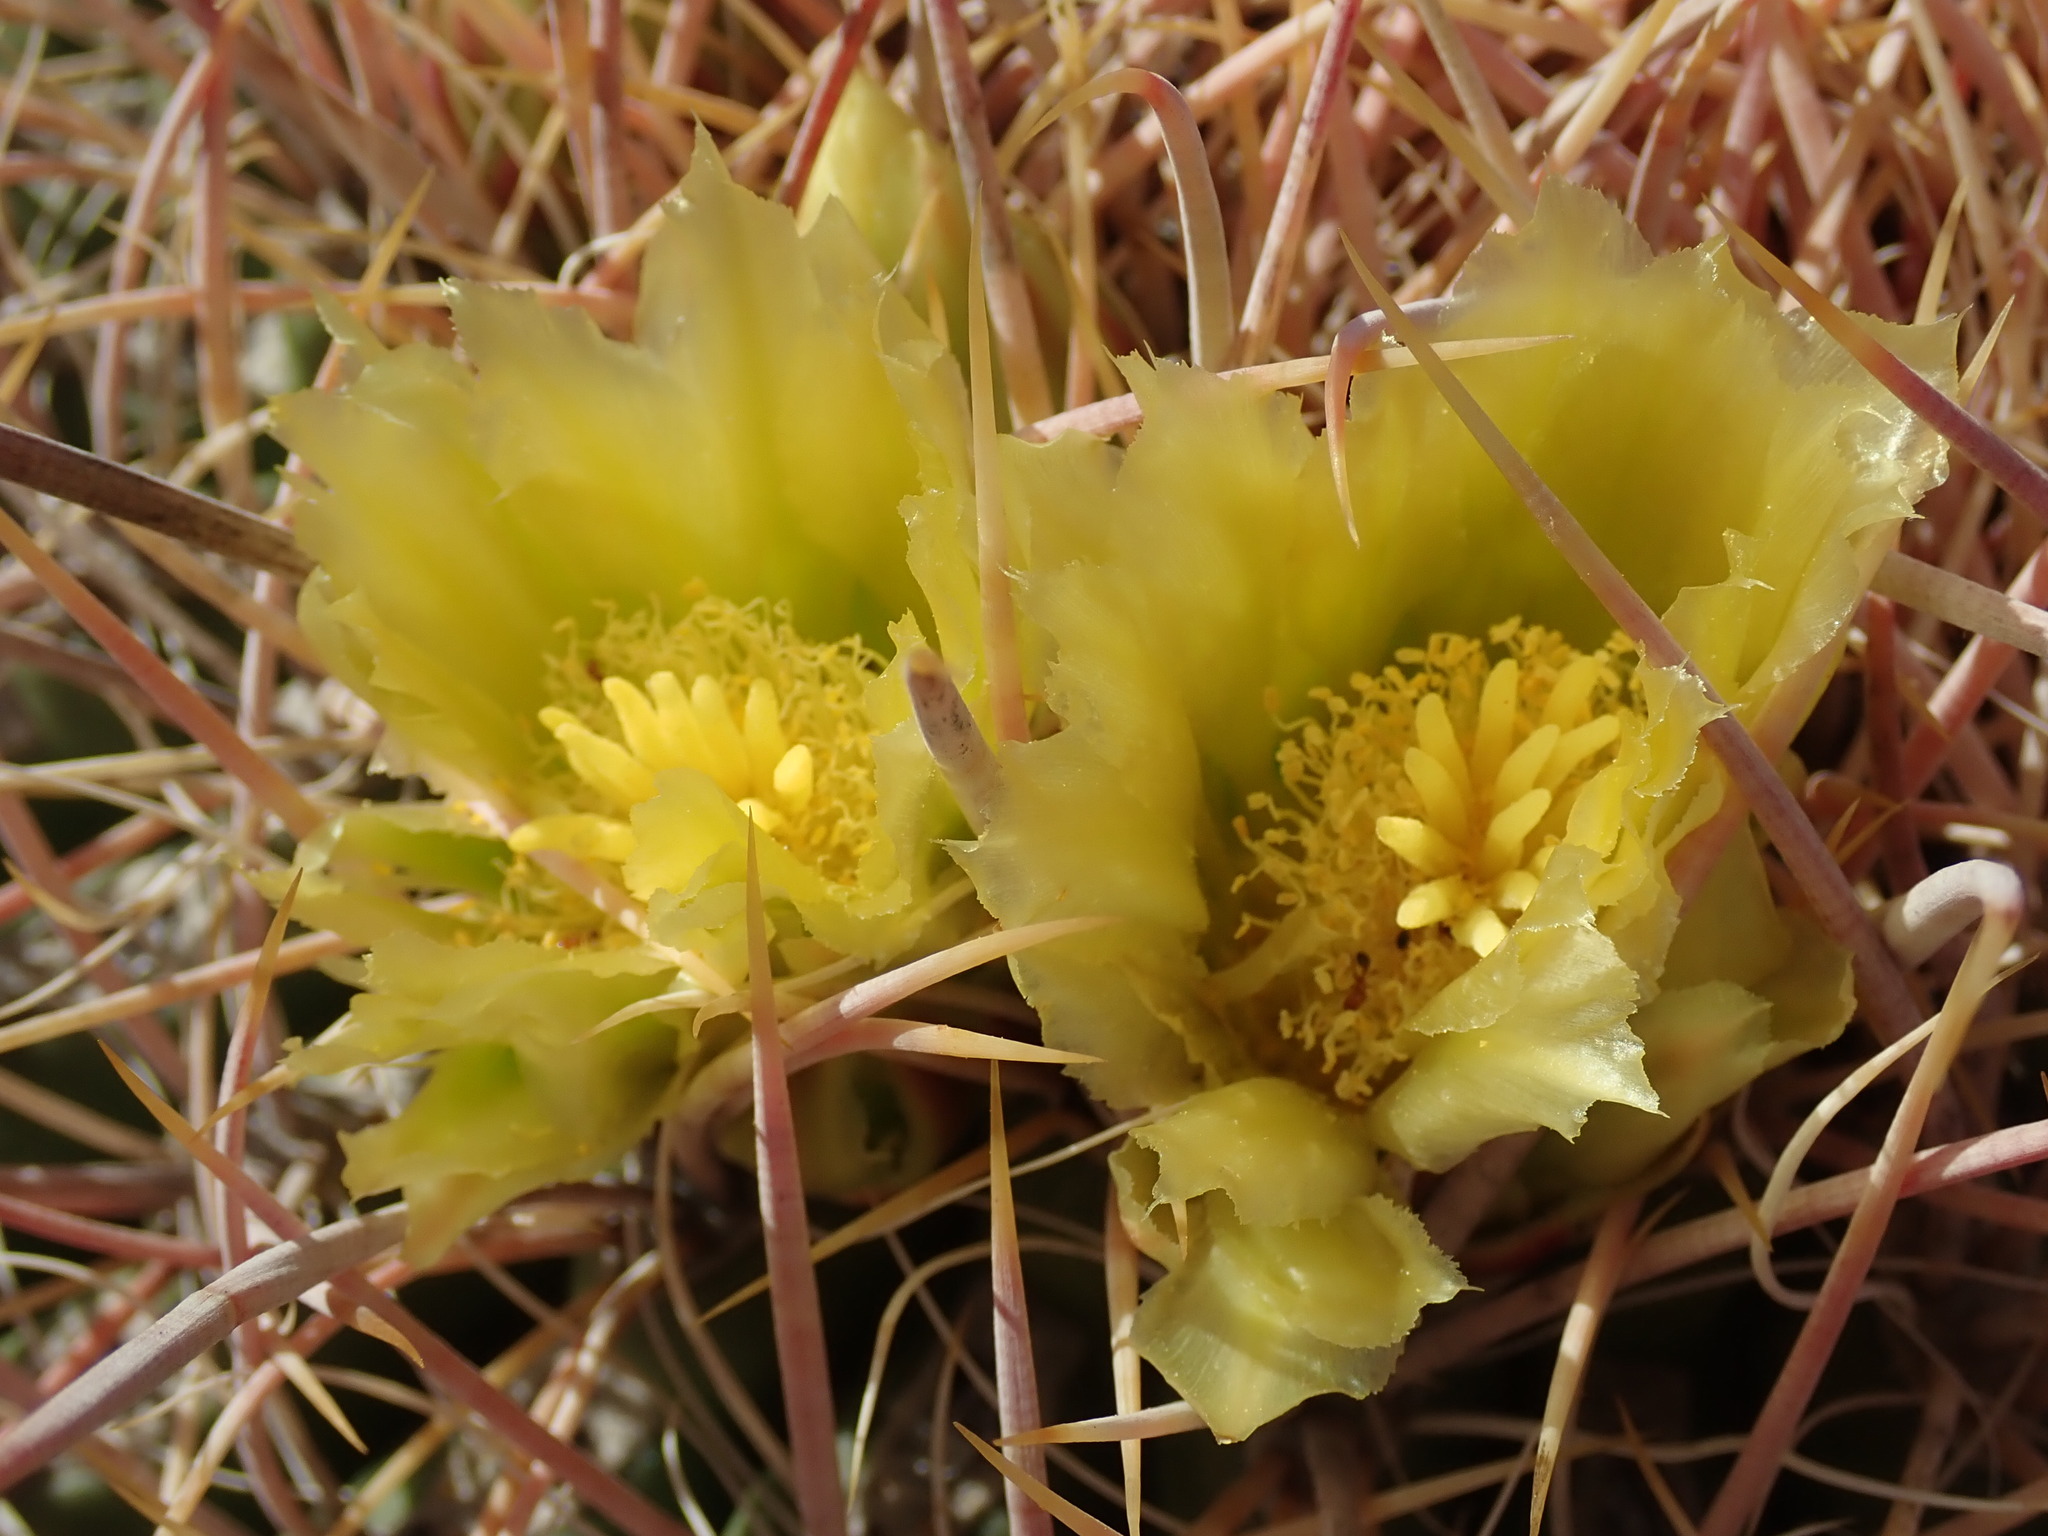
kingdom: Plantae
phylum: Tracheophyta
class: Magnoliopsida
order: Caryophyllales
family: Cactaceae
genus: Ferocactus
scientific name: Ferocactus cylindraceus
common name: California barrel cactus
